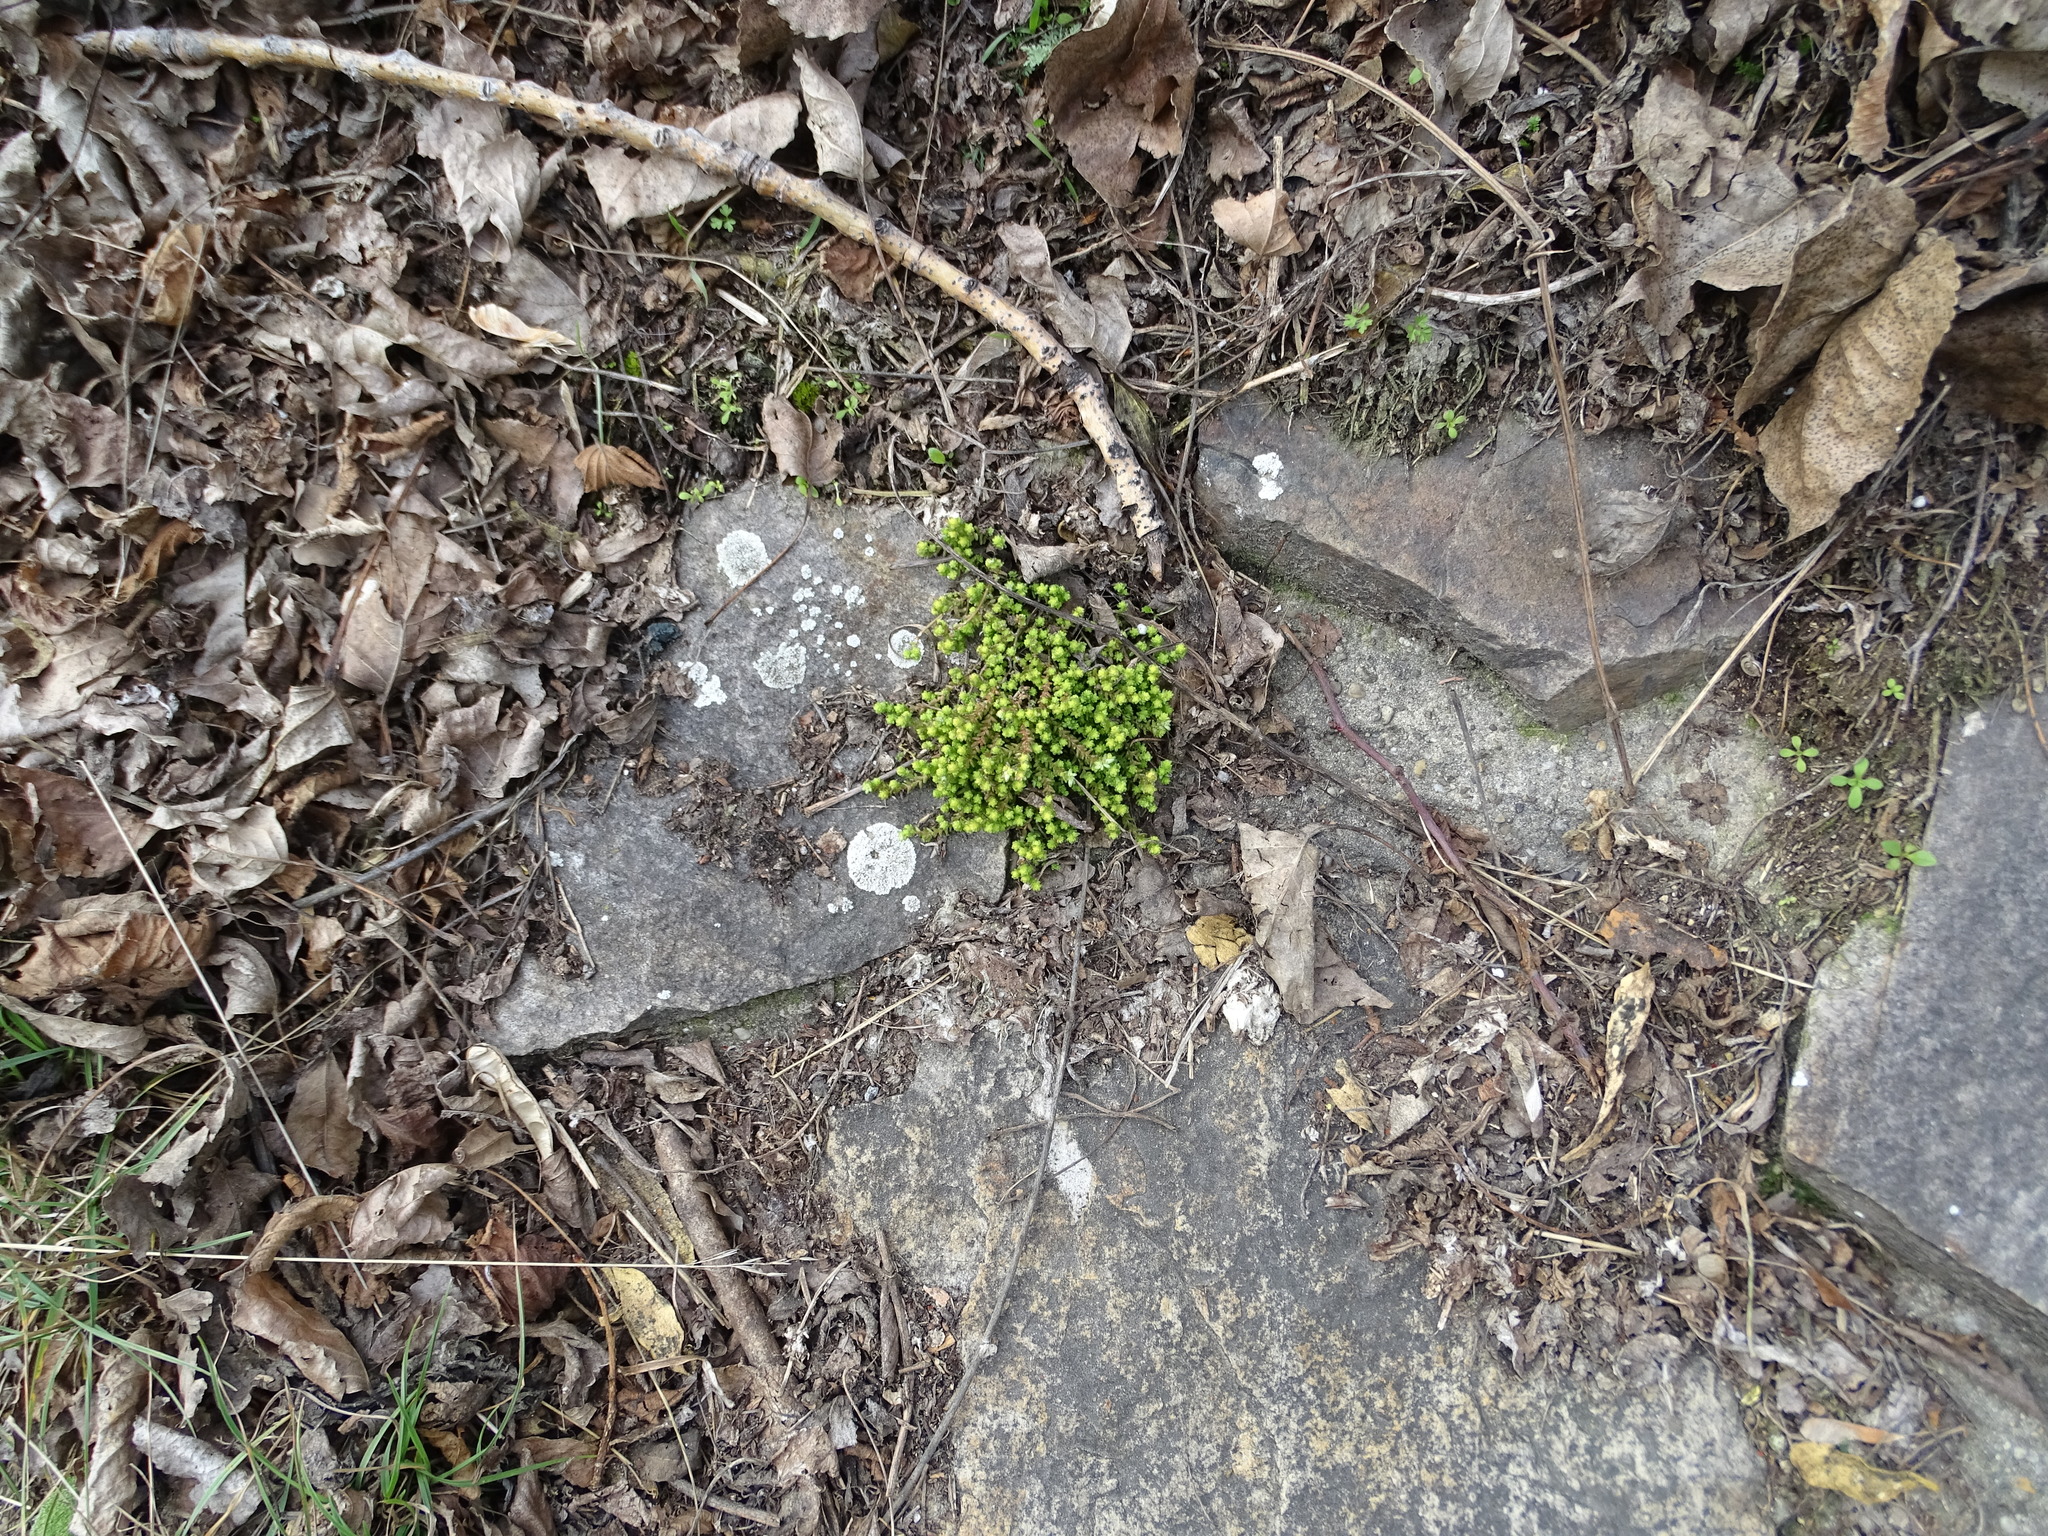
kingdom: Plantae
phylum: Tracheophyta
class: Magnoliopsida
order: Saxifragales
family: Crassulaceae
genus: Sedum
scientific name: Sedum acre
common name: Biting stonecrop
